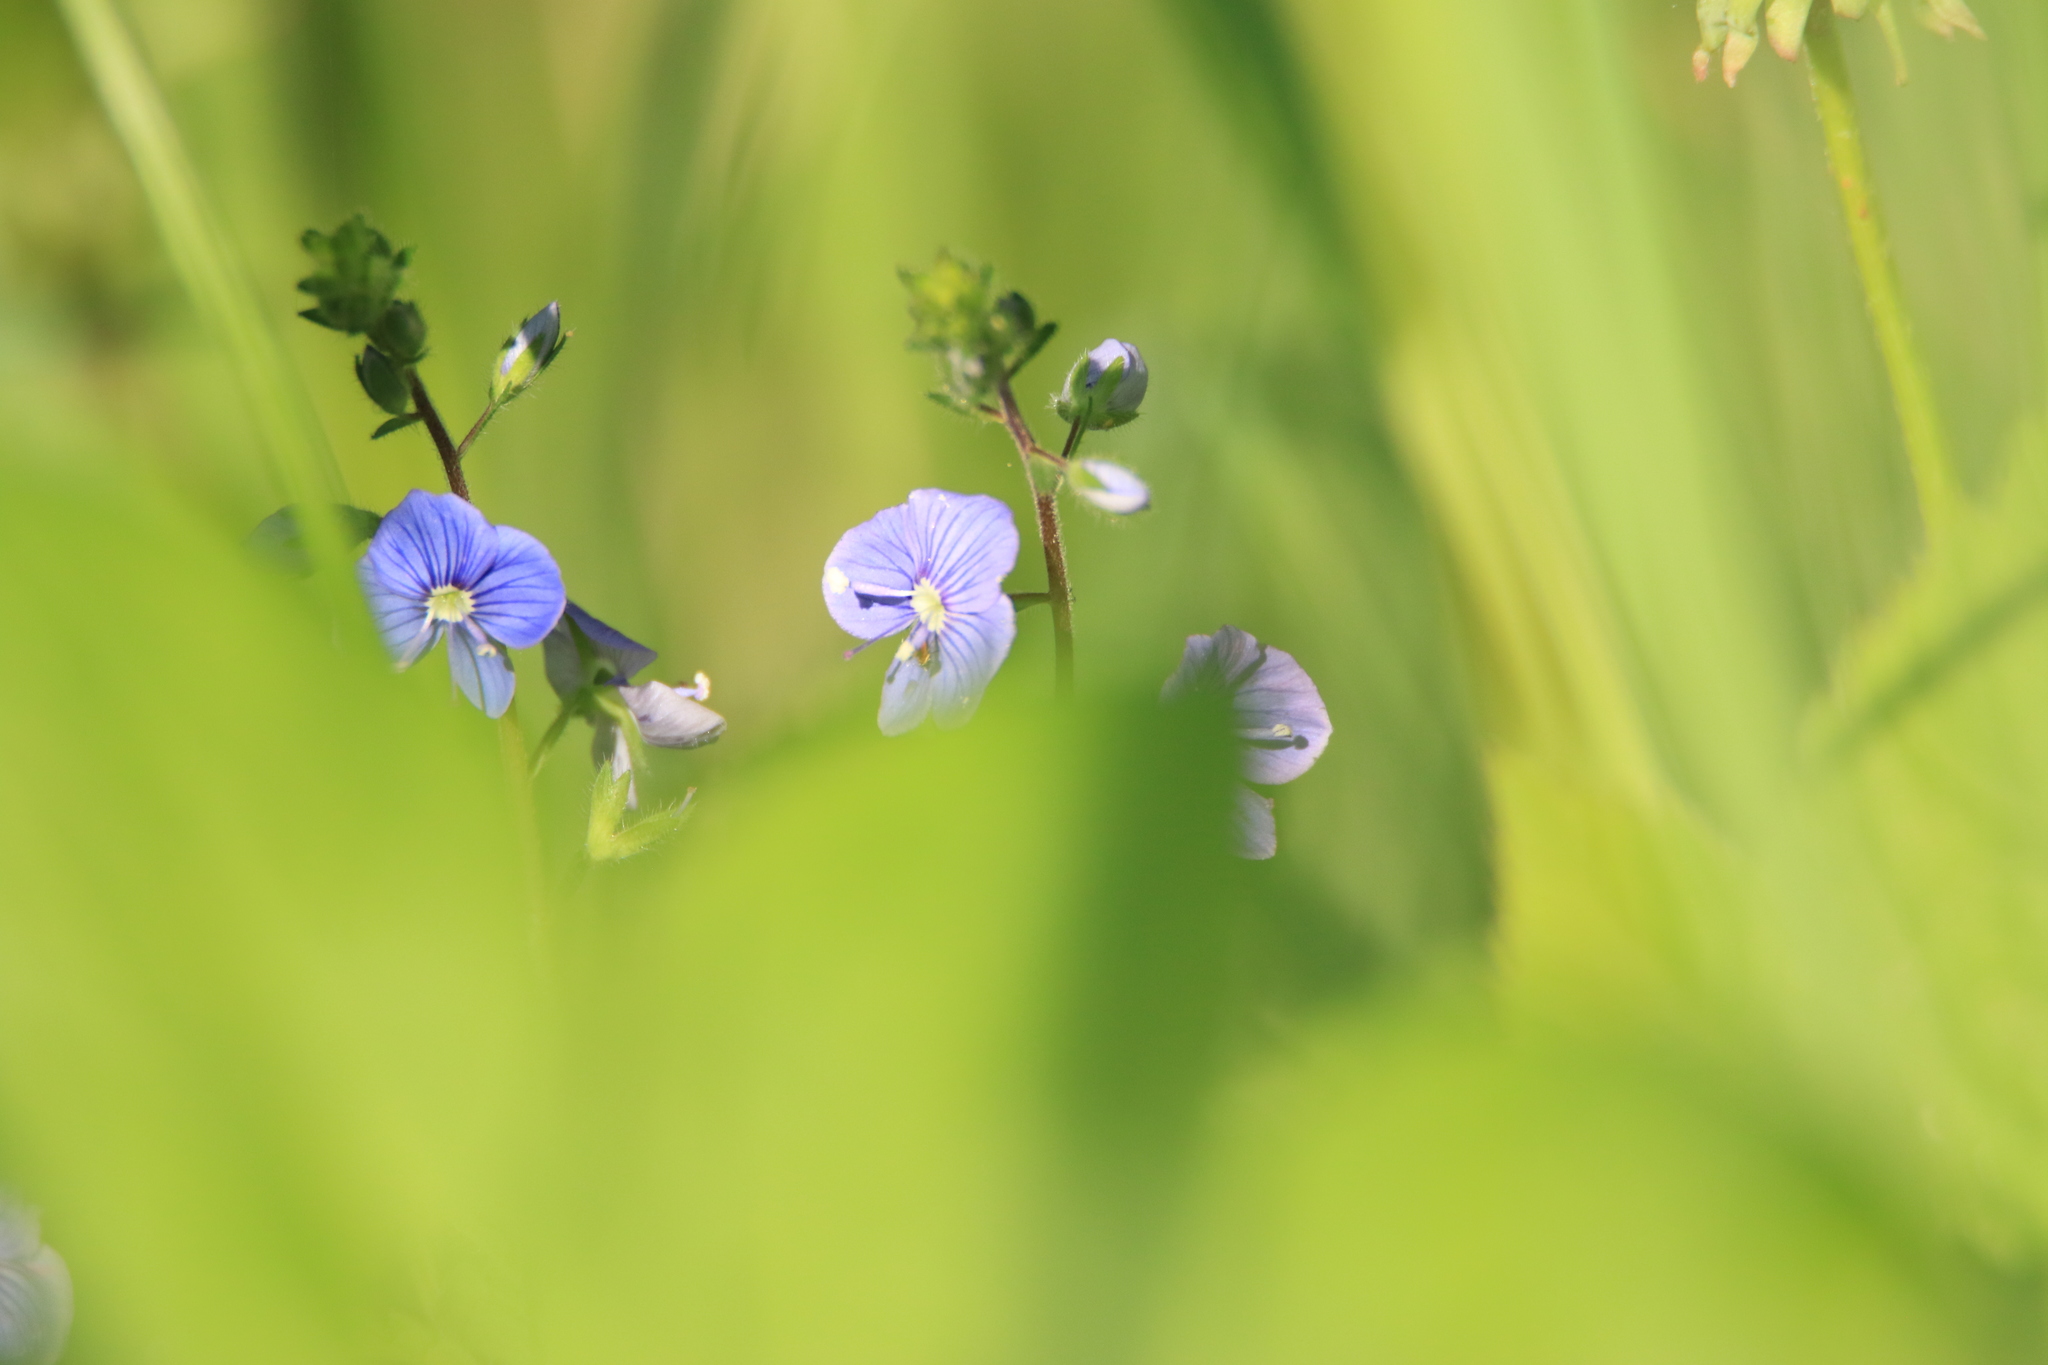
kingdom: Plantae
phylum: Tracheophyta
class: Magnoliopsida
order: Lamiales
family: Plantaginaceae
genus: Veronica
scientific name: Veronica chamaedrys
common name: Germander speedwell
